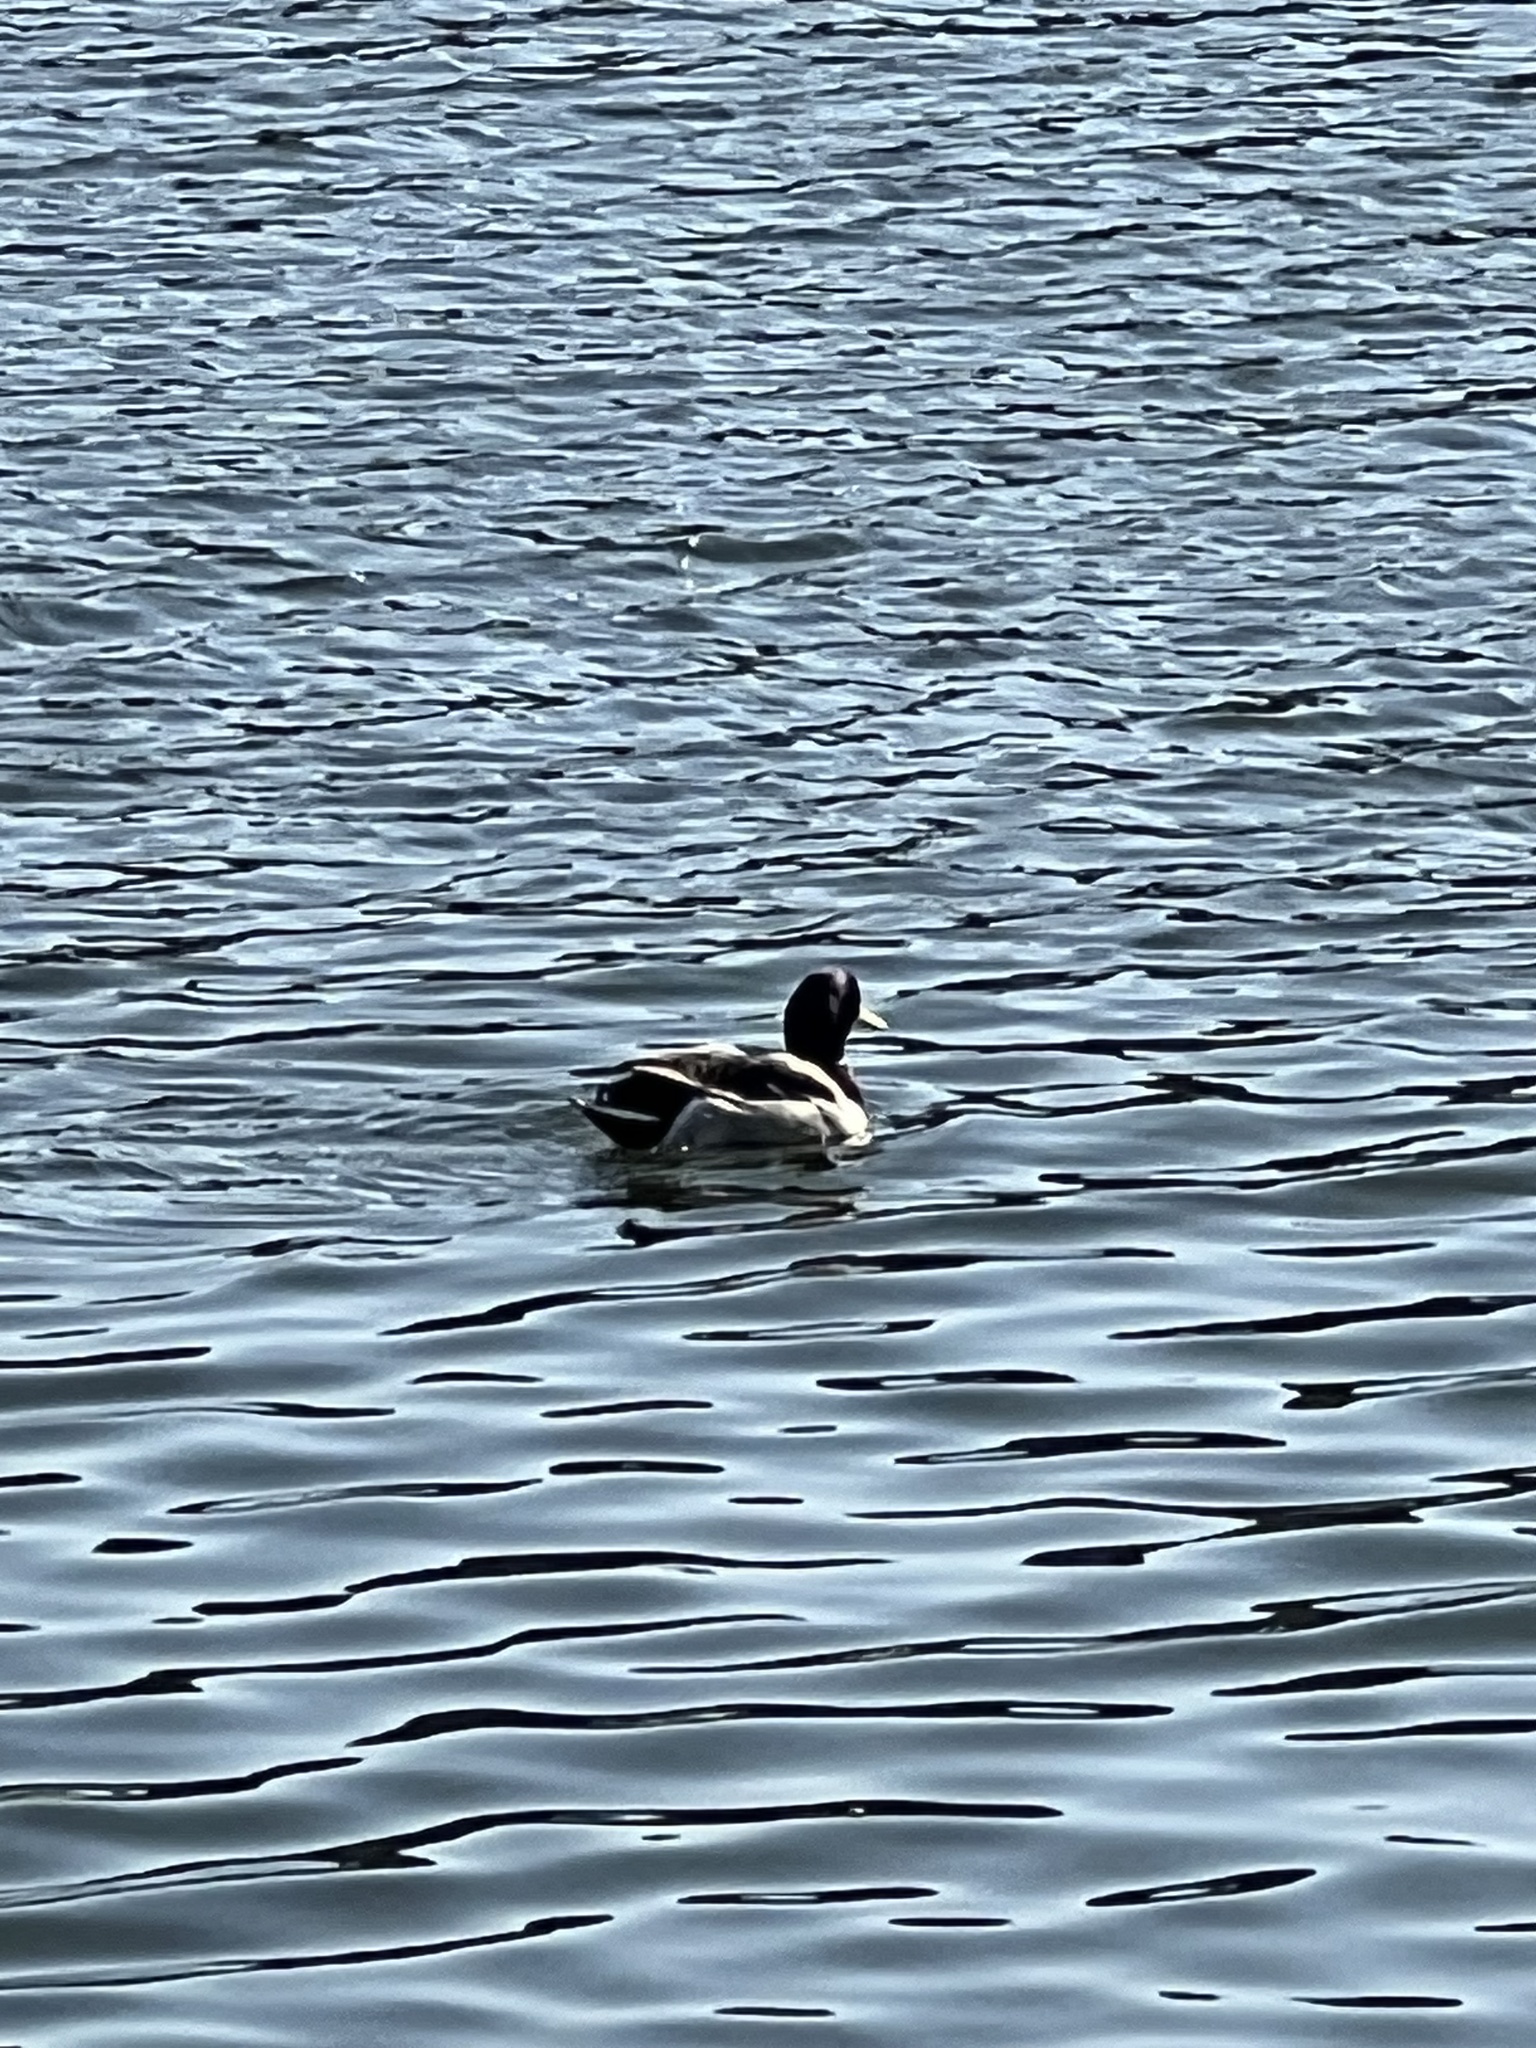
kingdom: Animalia
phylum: Chordata
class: Aves
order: Anseriformes
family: Anatidae
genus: Anas
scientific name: Anas platyrhynchos
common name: Mallard
